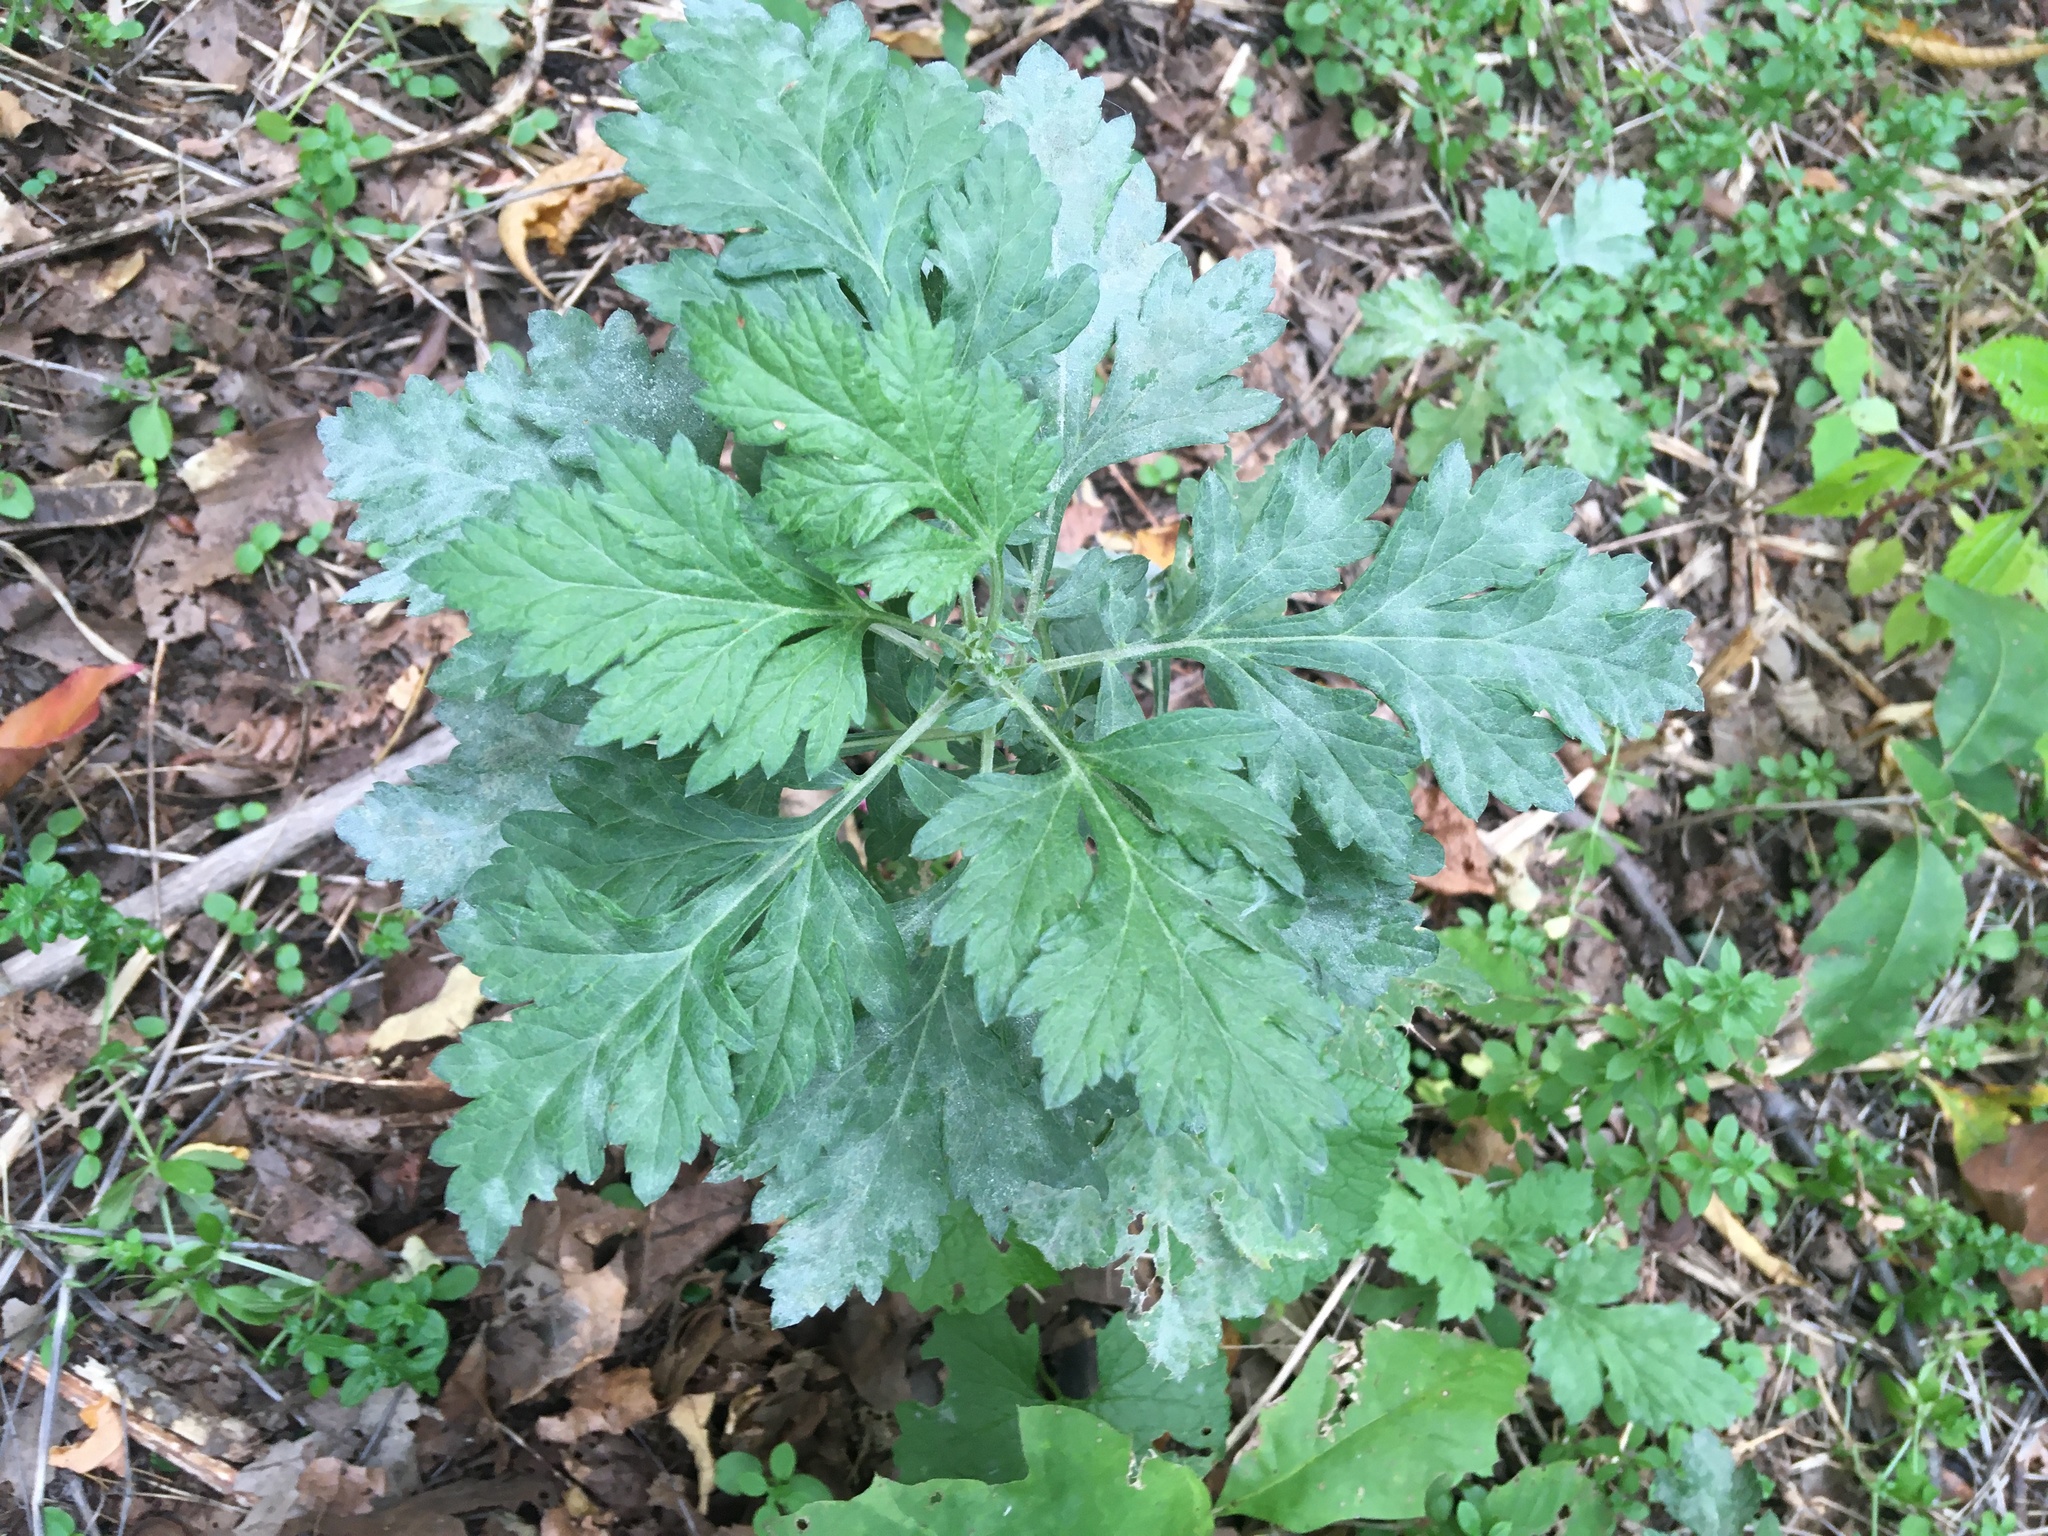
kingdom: Plantae
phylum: Tracheophyta
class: Magnoliopsida
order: Asterales
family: Asteraceae
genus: Artemisia
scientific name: Artemisia vulgaris
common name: Mugwort
